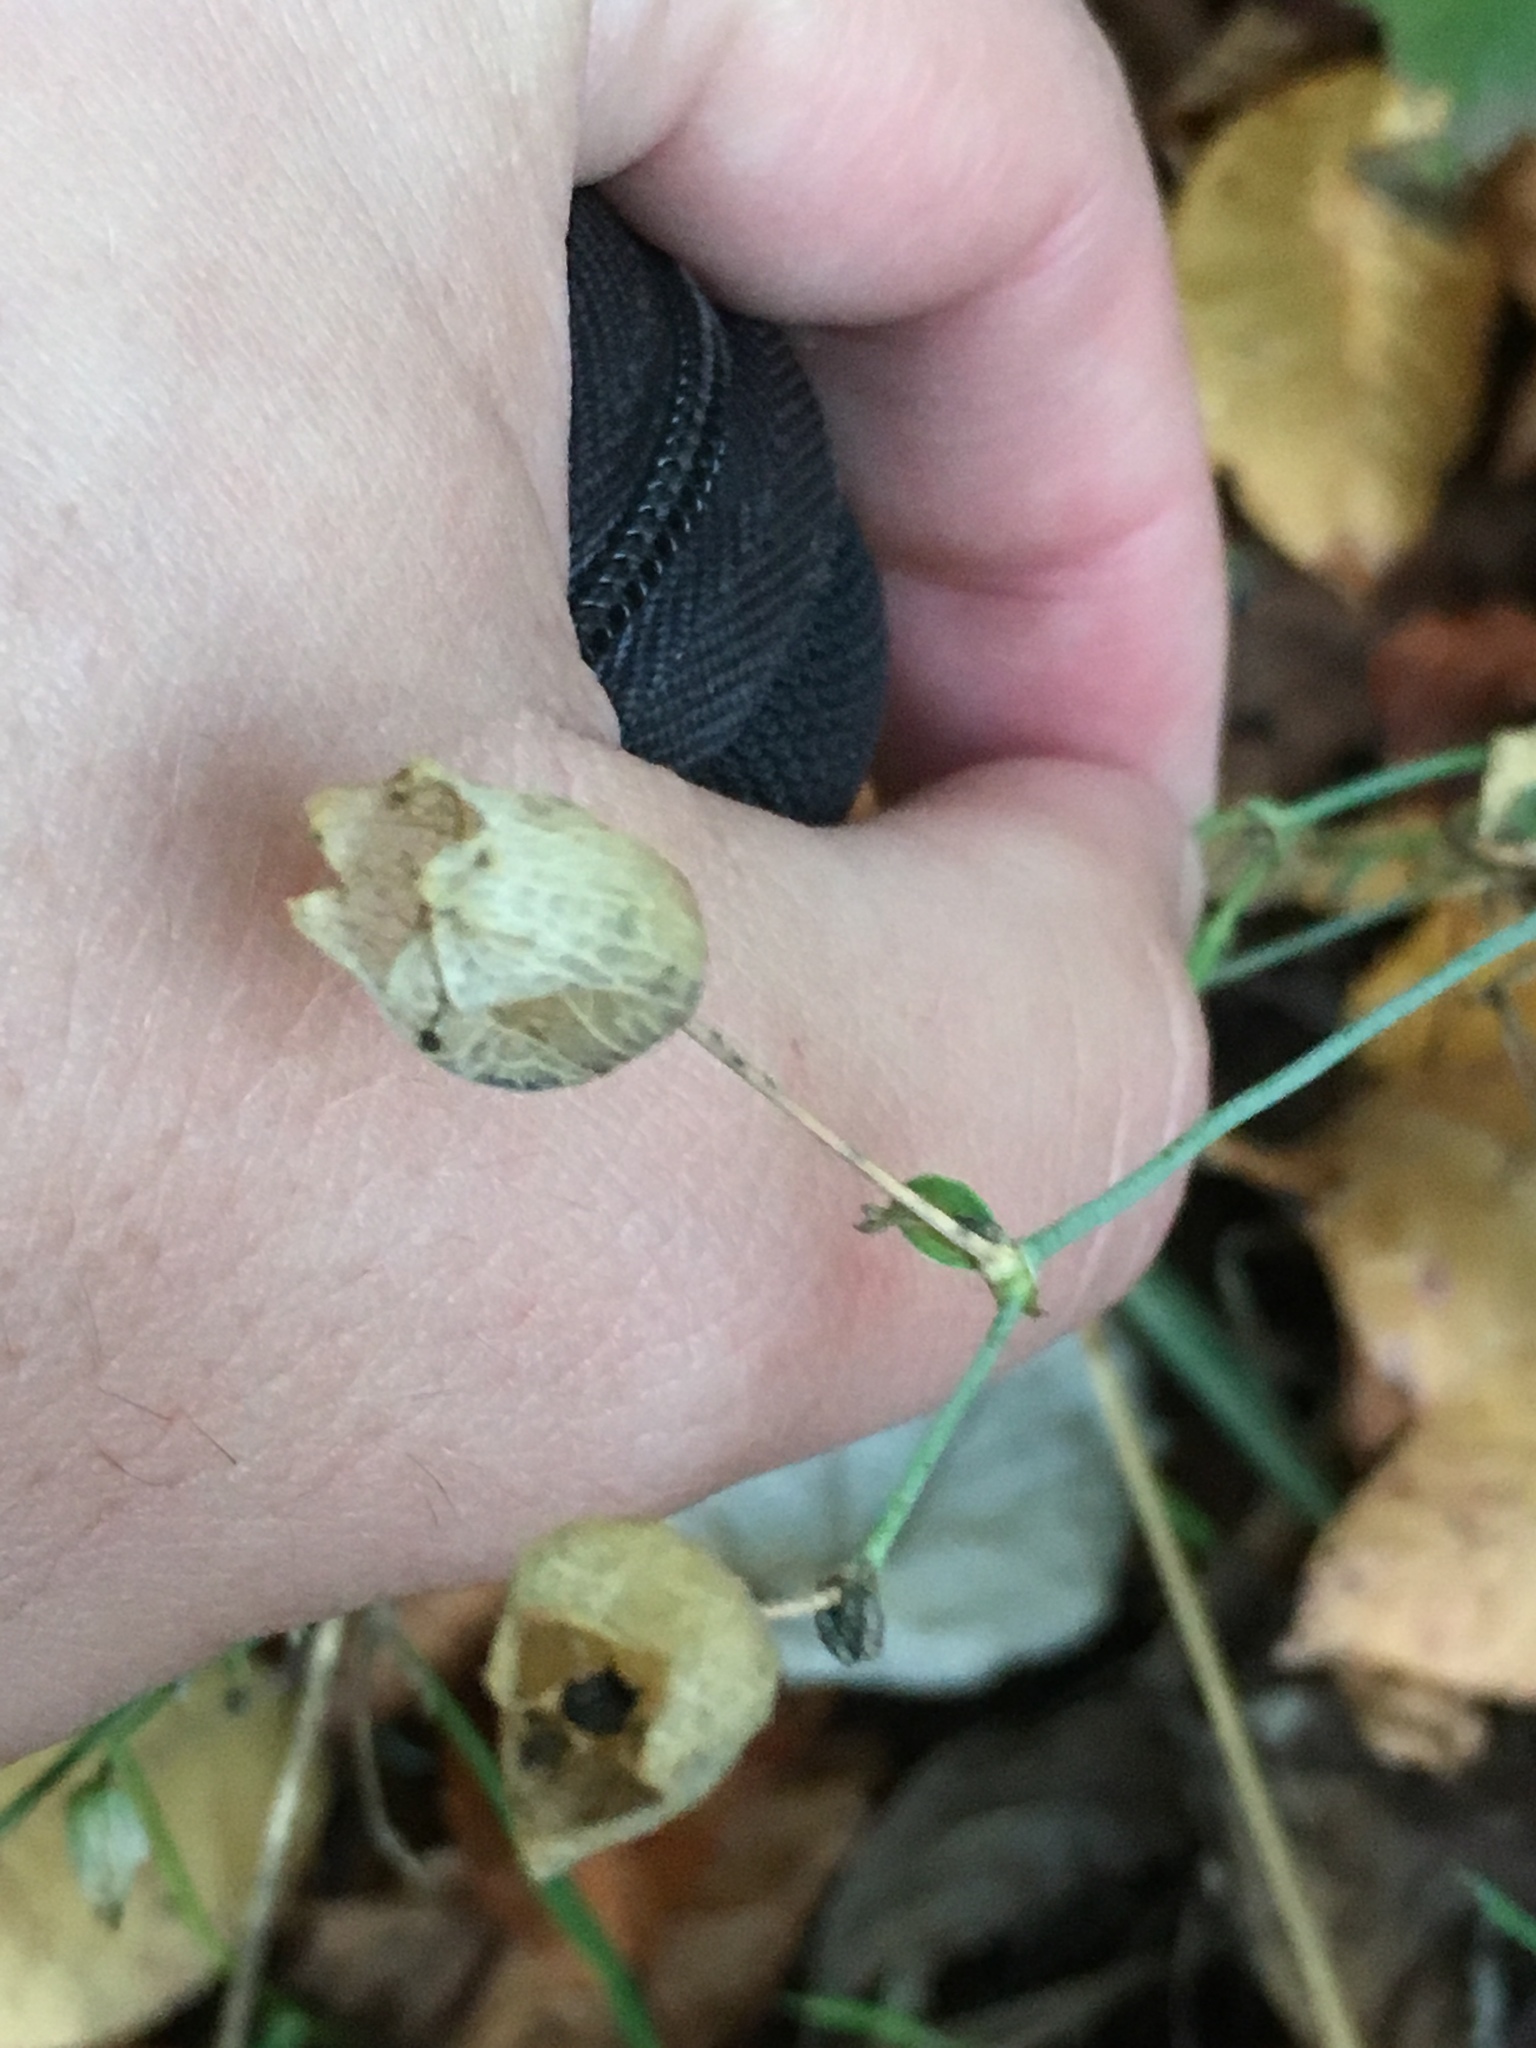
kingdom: Plantae
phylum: Tracheophyta
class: Magnoliopsida
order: Caryophyllales
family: Caryophyllaceae
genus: Silene
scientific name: Silene vulgaris
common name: Bladder campion
